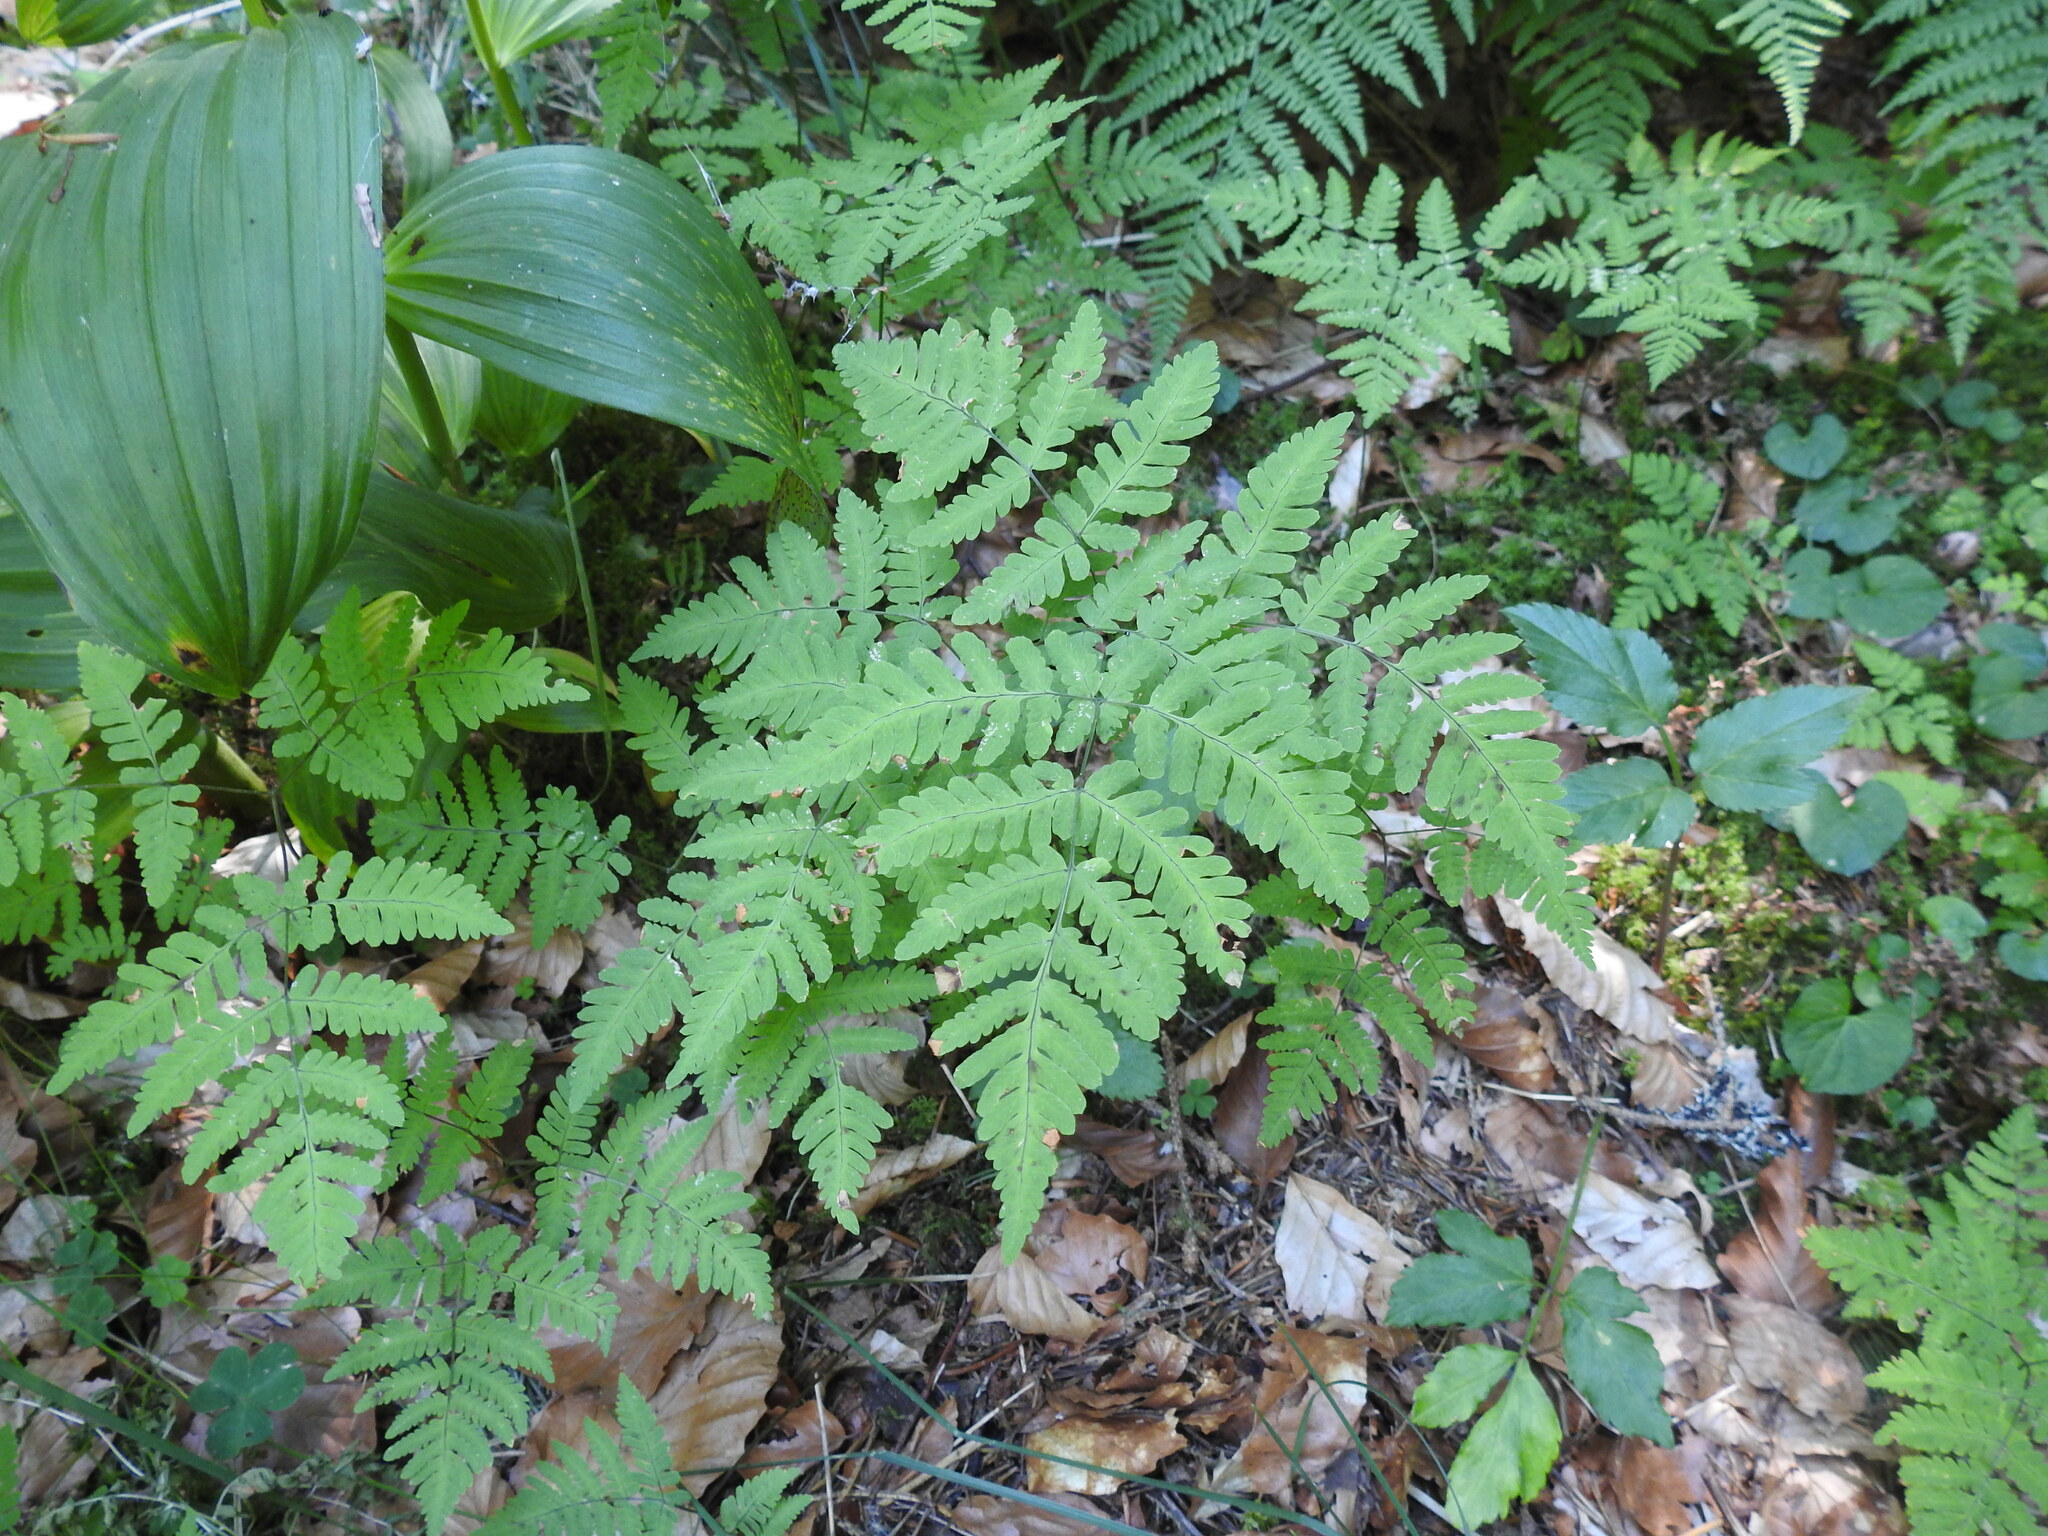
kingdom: Plantae
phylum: Tracheophyta
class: Polypodiopsida
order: Polypodiales
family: Cystopteridaceae
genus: Gymnocarpium
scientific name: Gymnocarpium dryopteris
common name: Oak fern
